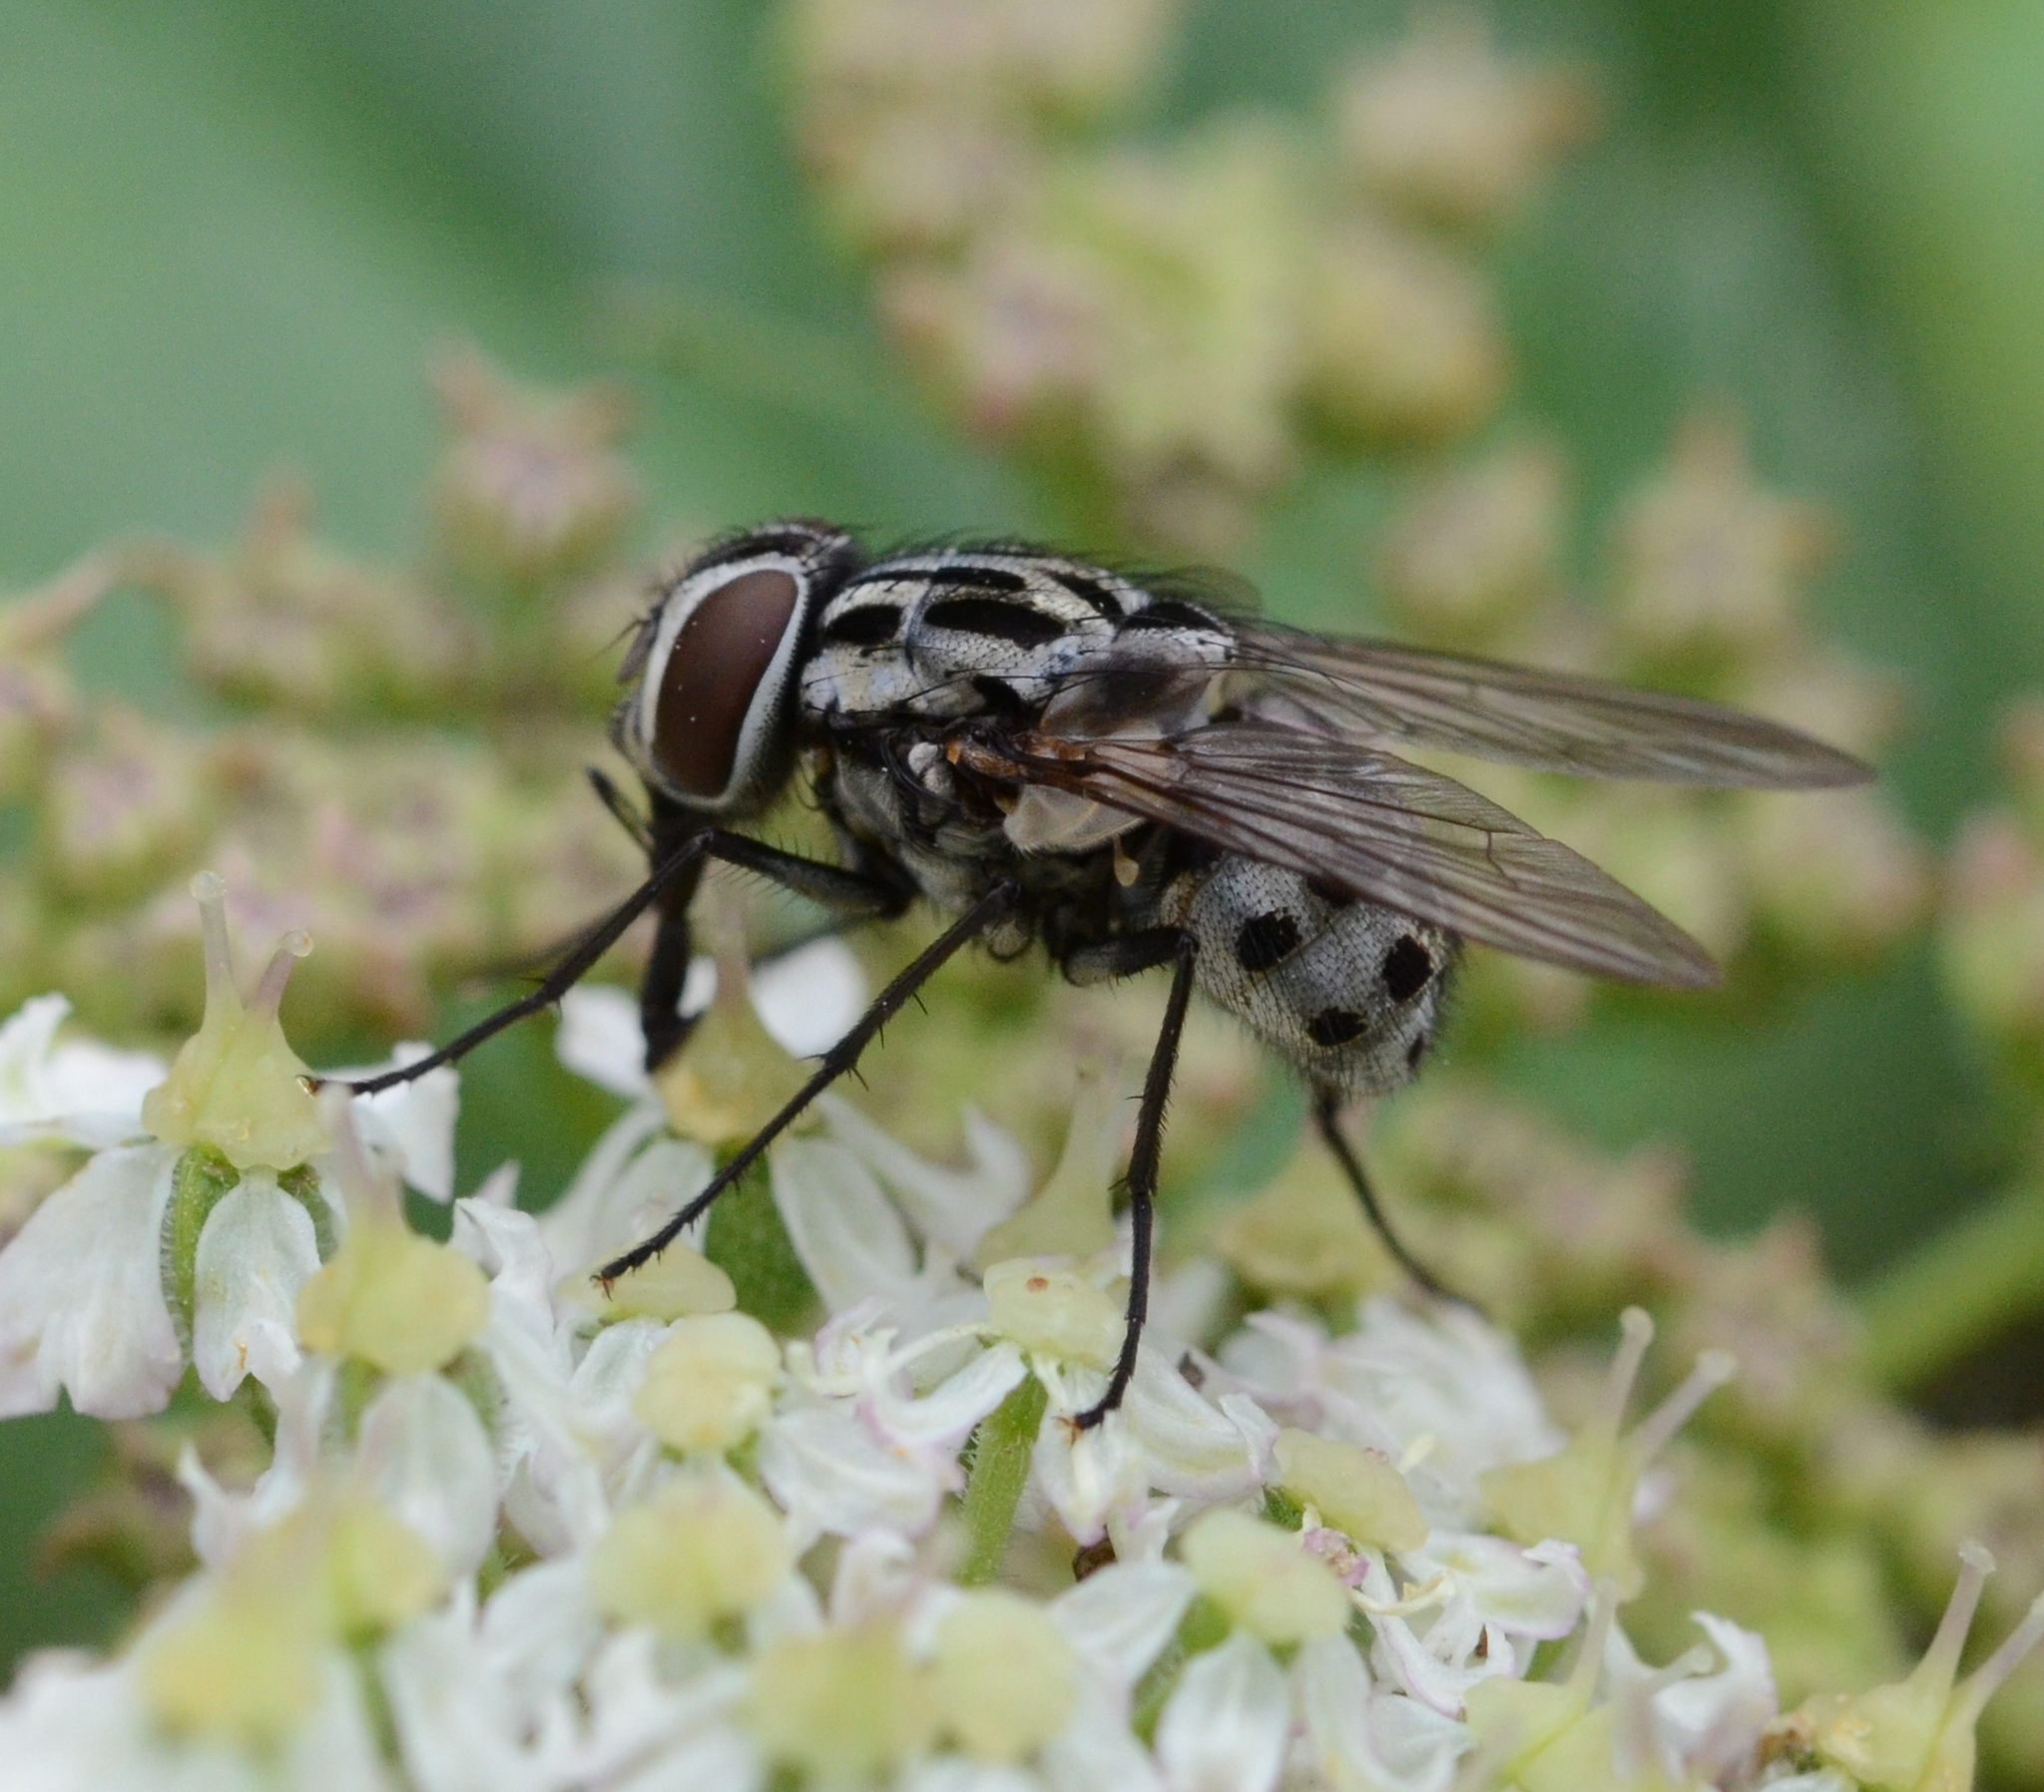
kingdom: Animalia
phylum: Arthropoda
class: Insecta
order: Diptera
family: Muscidae
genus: Graphomya
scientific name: Graphomya maculata
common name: Muscid fly
